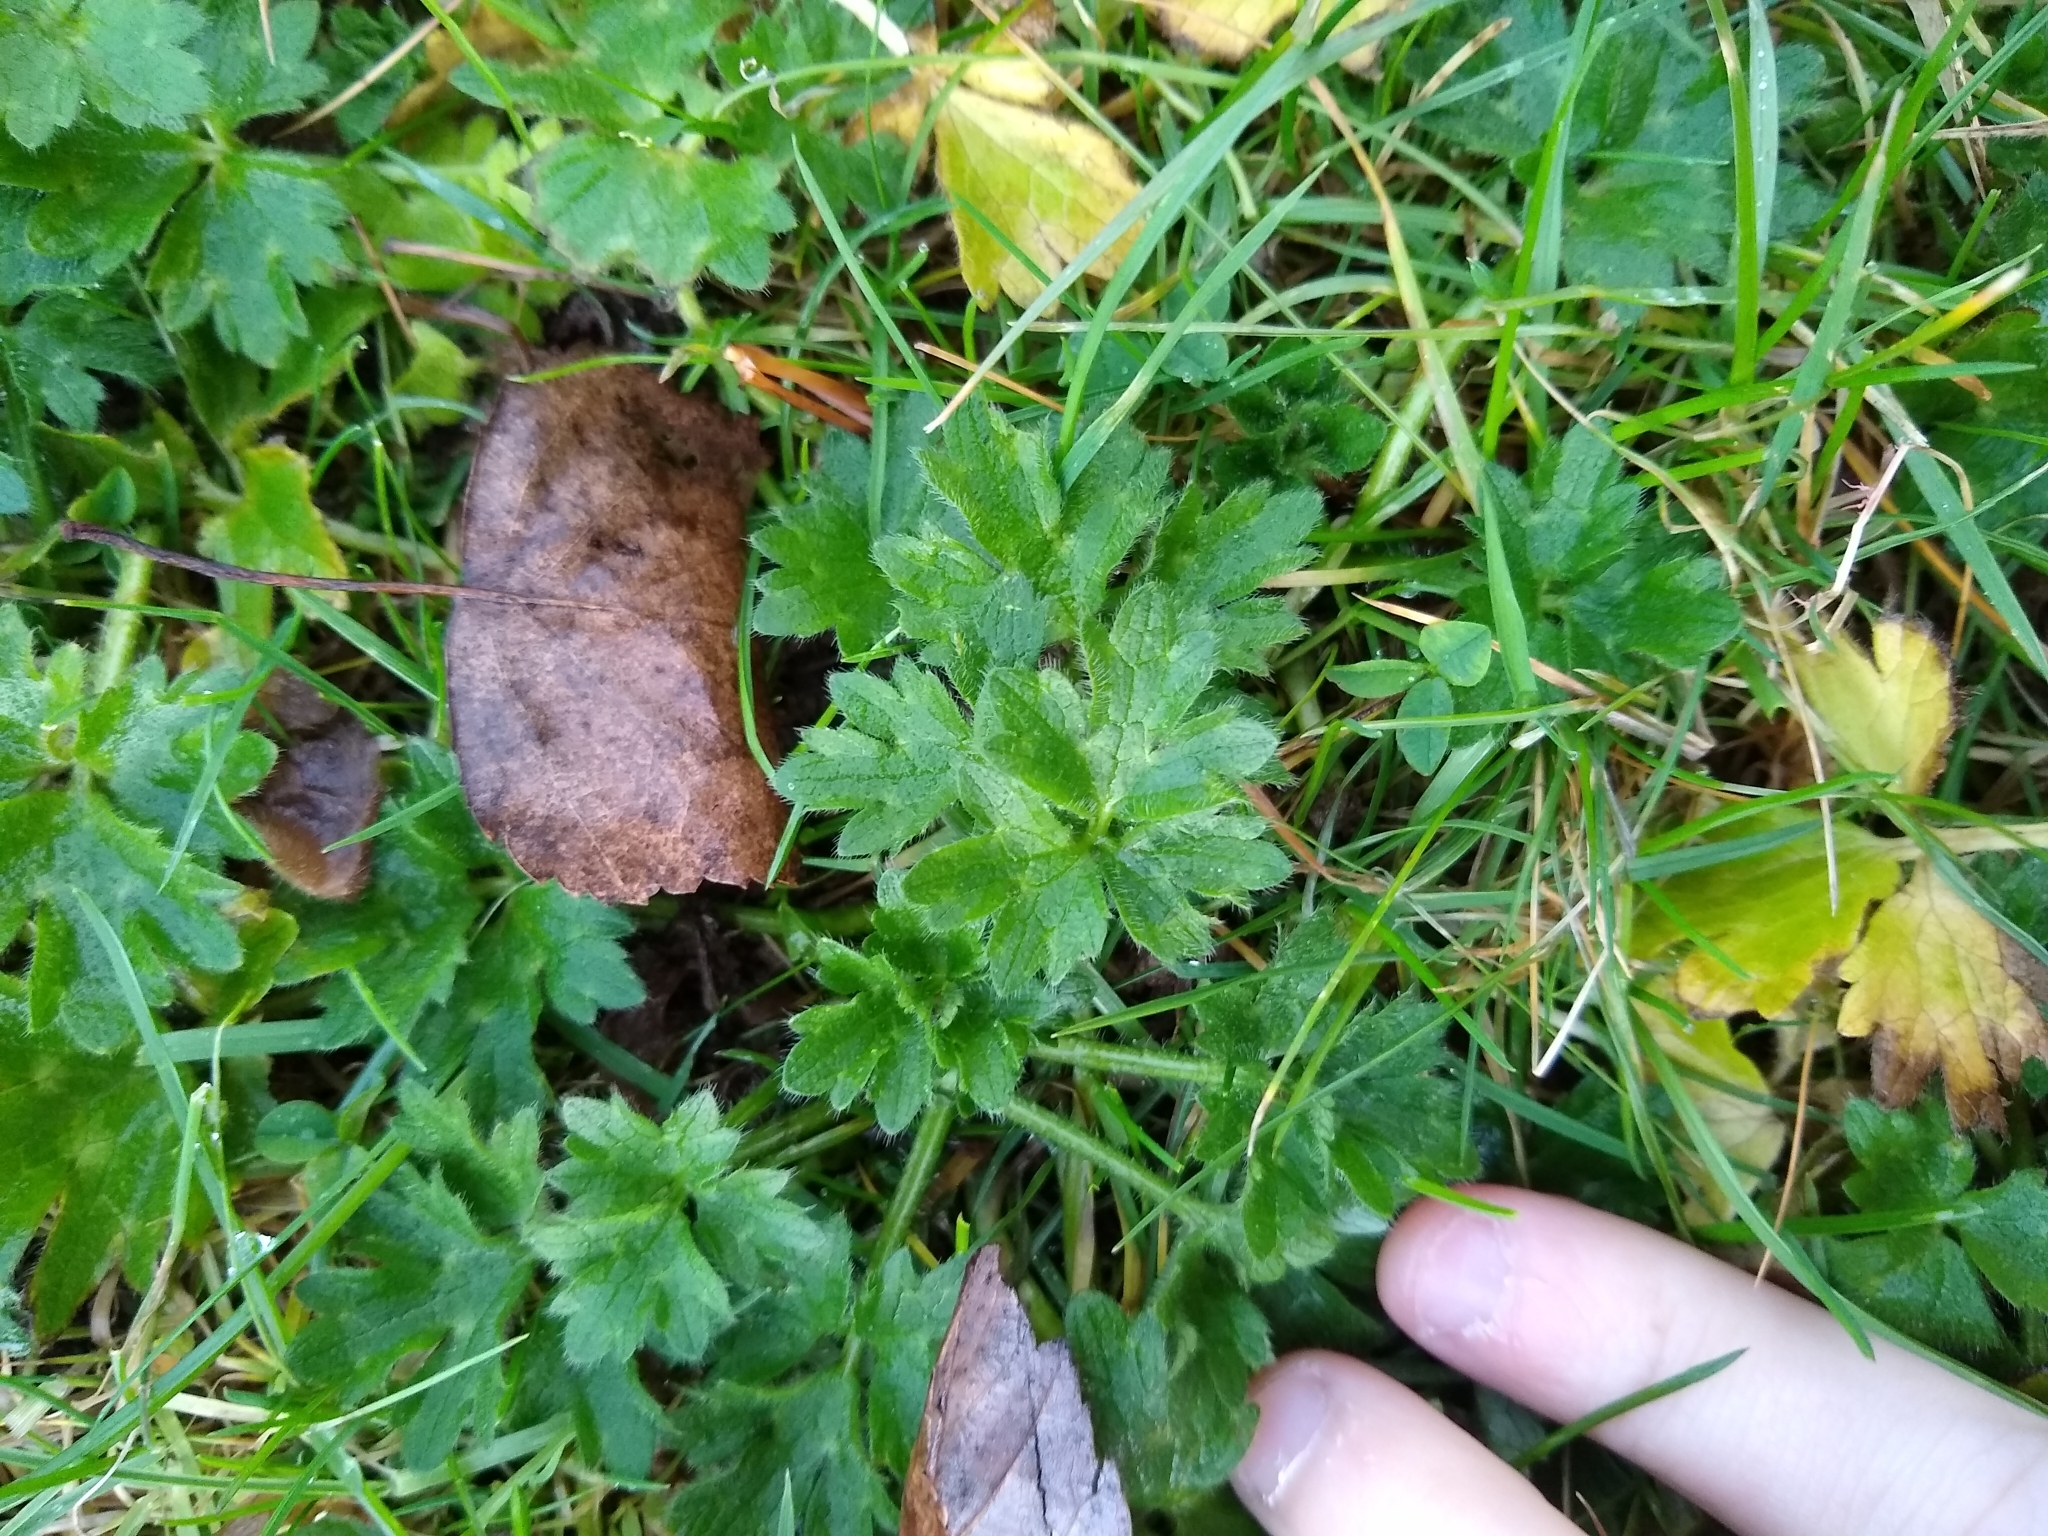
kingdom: Plantae
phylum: Tracheophyta
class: Magnoliopsida
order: Ranunculales
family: Ranunculaceae
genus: Ranunculus
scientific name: Ranunculus repens
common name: Creeping buttercup
